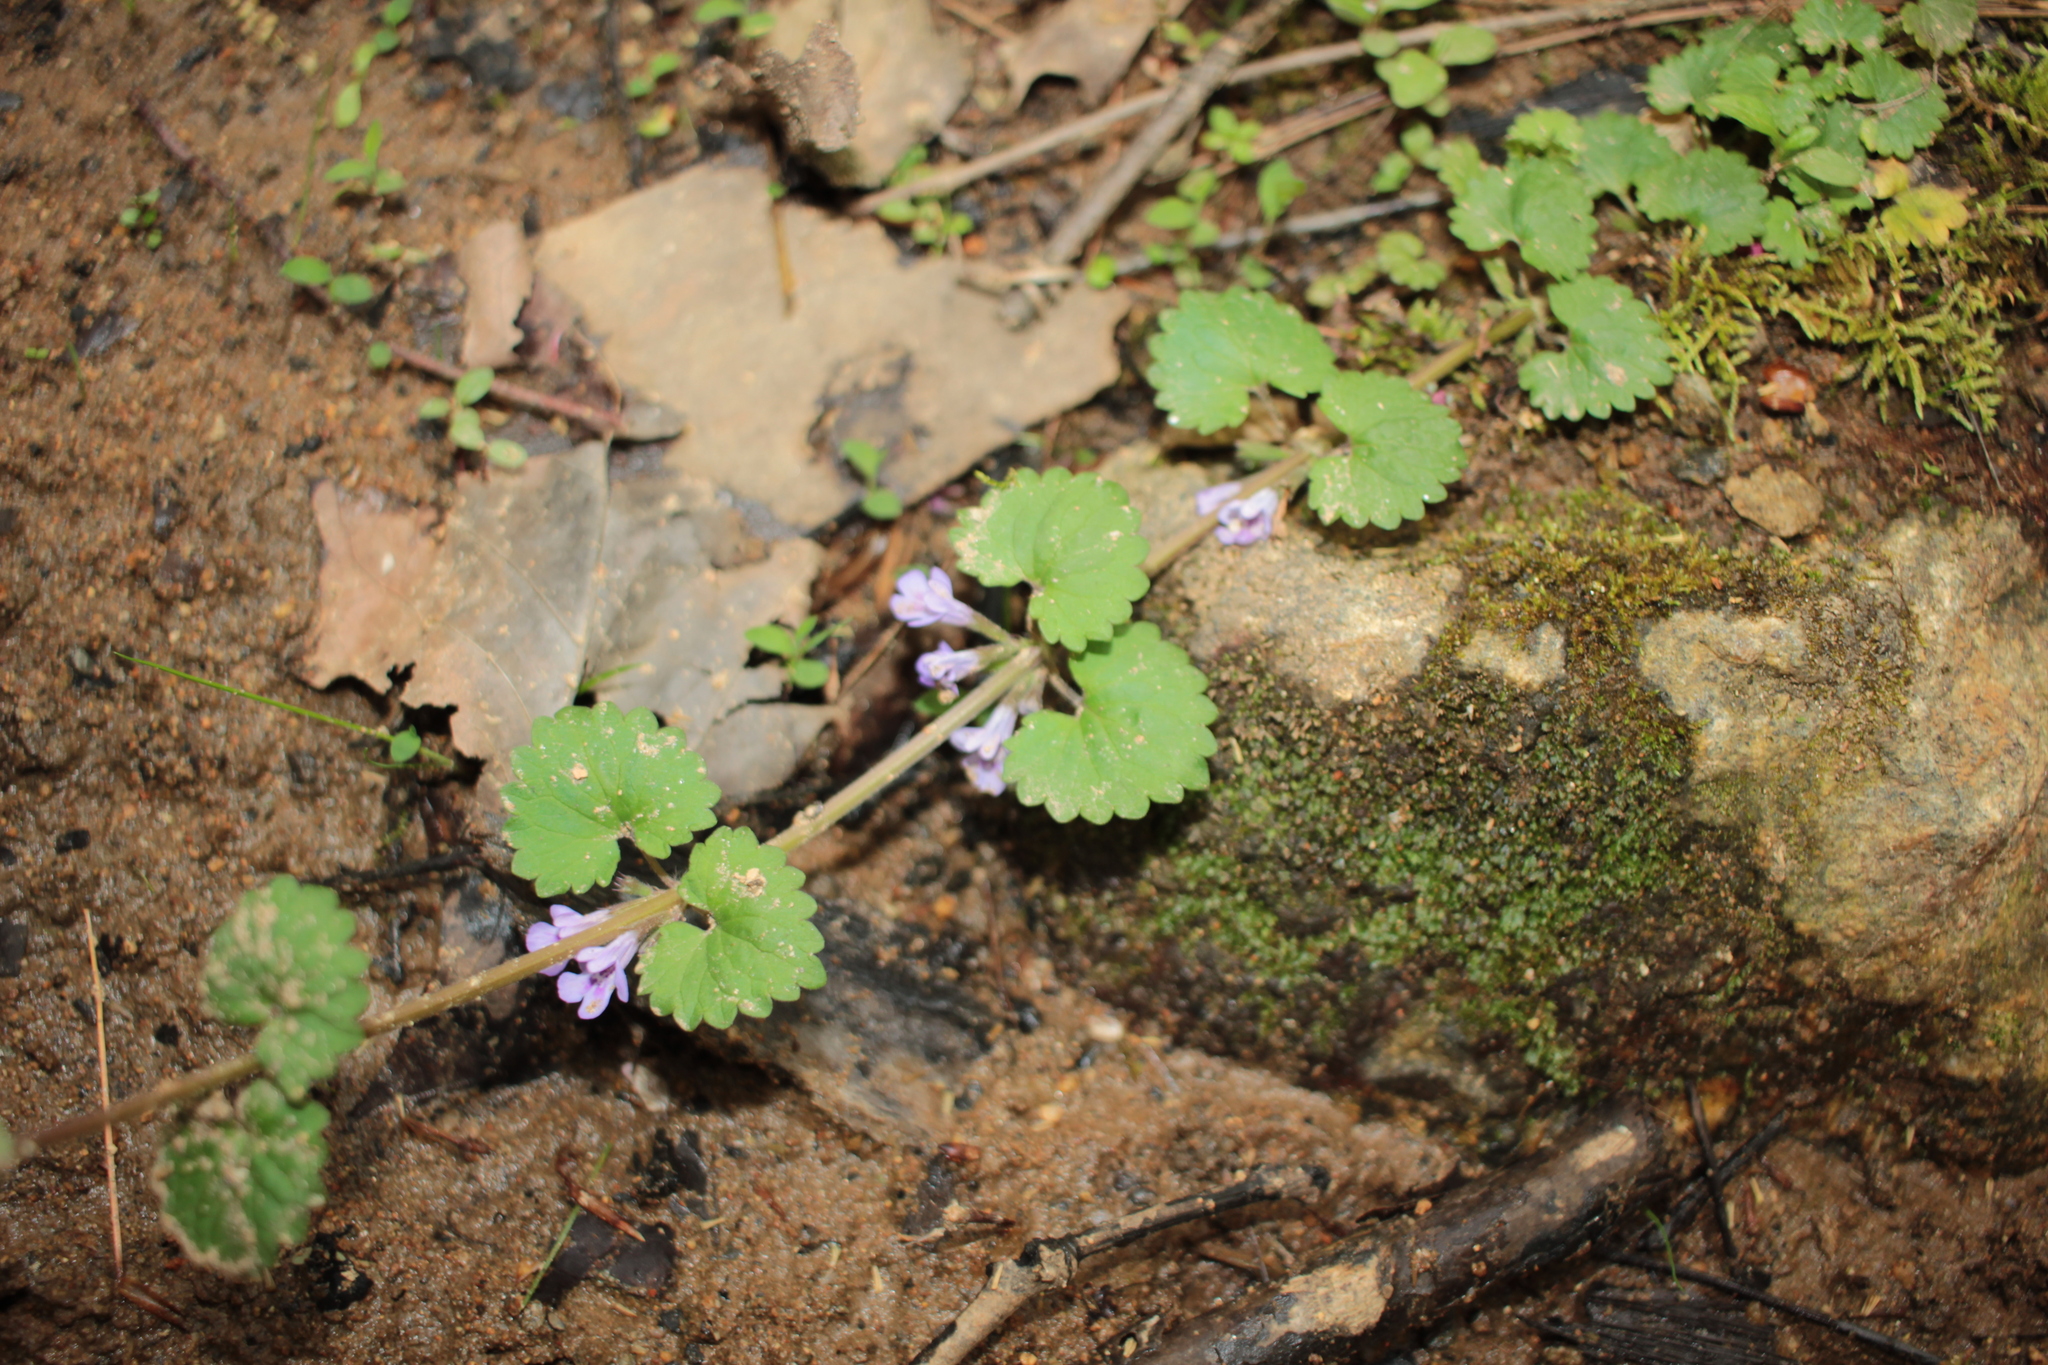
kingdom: Plantae
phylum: Tracheophyta
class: Magnoliopsida
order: Lamiales
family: Lamiaceae
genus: Glechoma
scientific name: Glechoma hederacea
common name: Ground ivy
